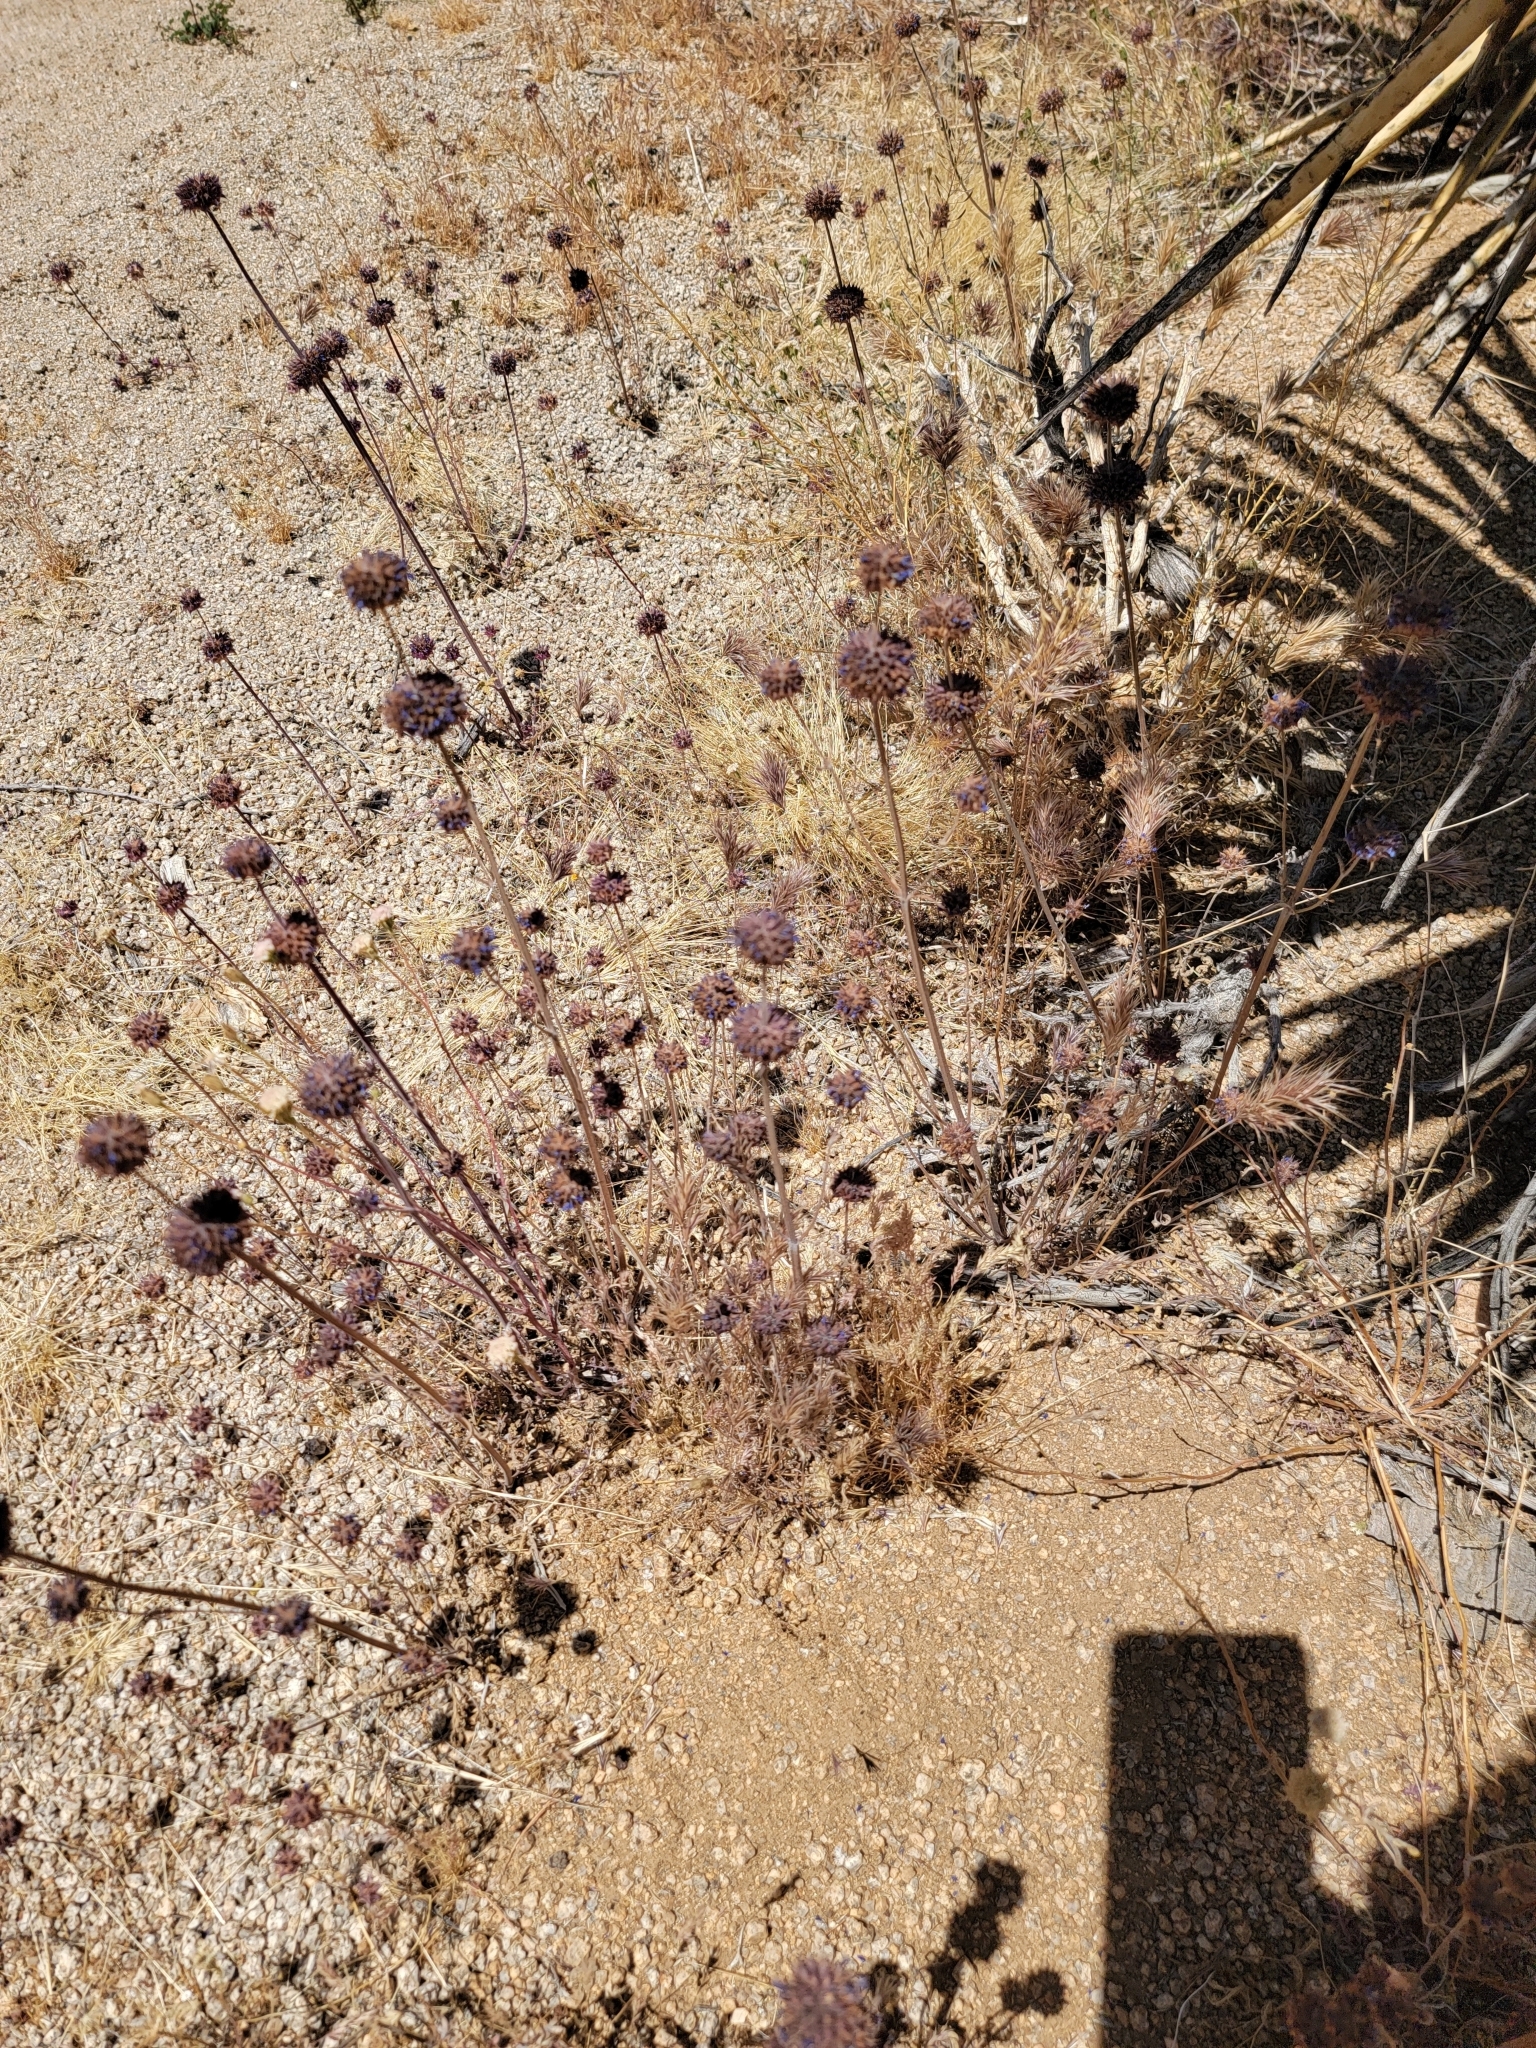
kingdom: Plantae
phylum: Tracheophyta
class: Magnoliopsida
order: Lamiales
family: Lamiaceae
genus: Salvia
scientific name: Salvia columbariae
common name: Chia
